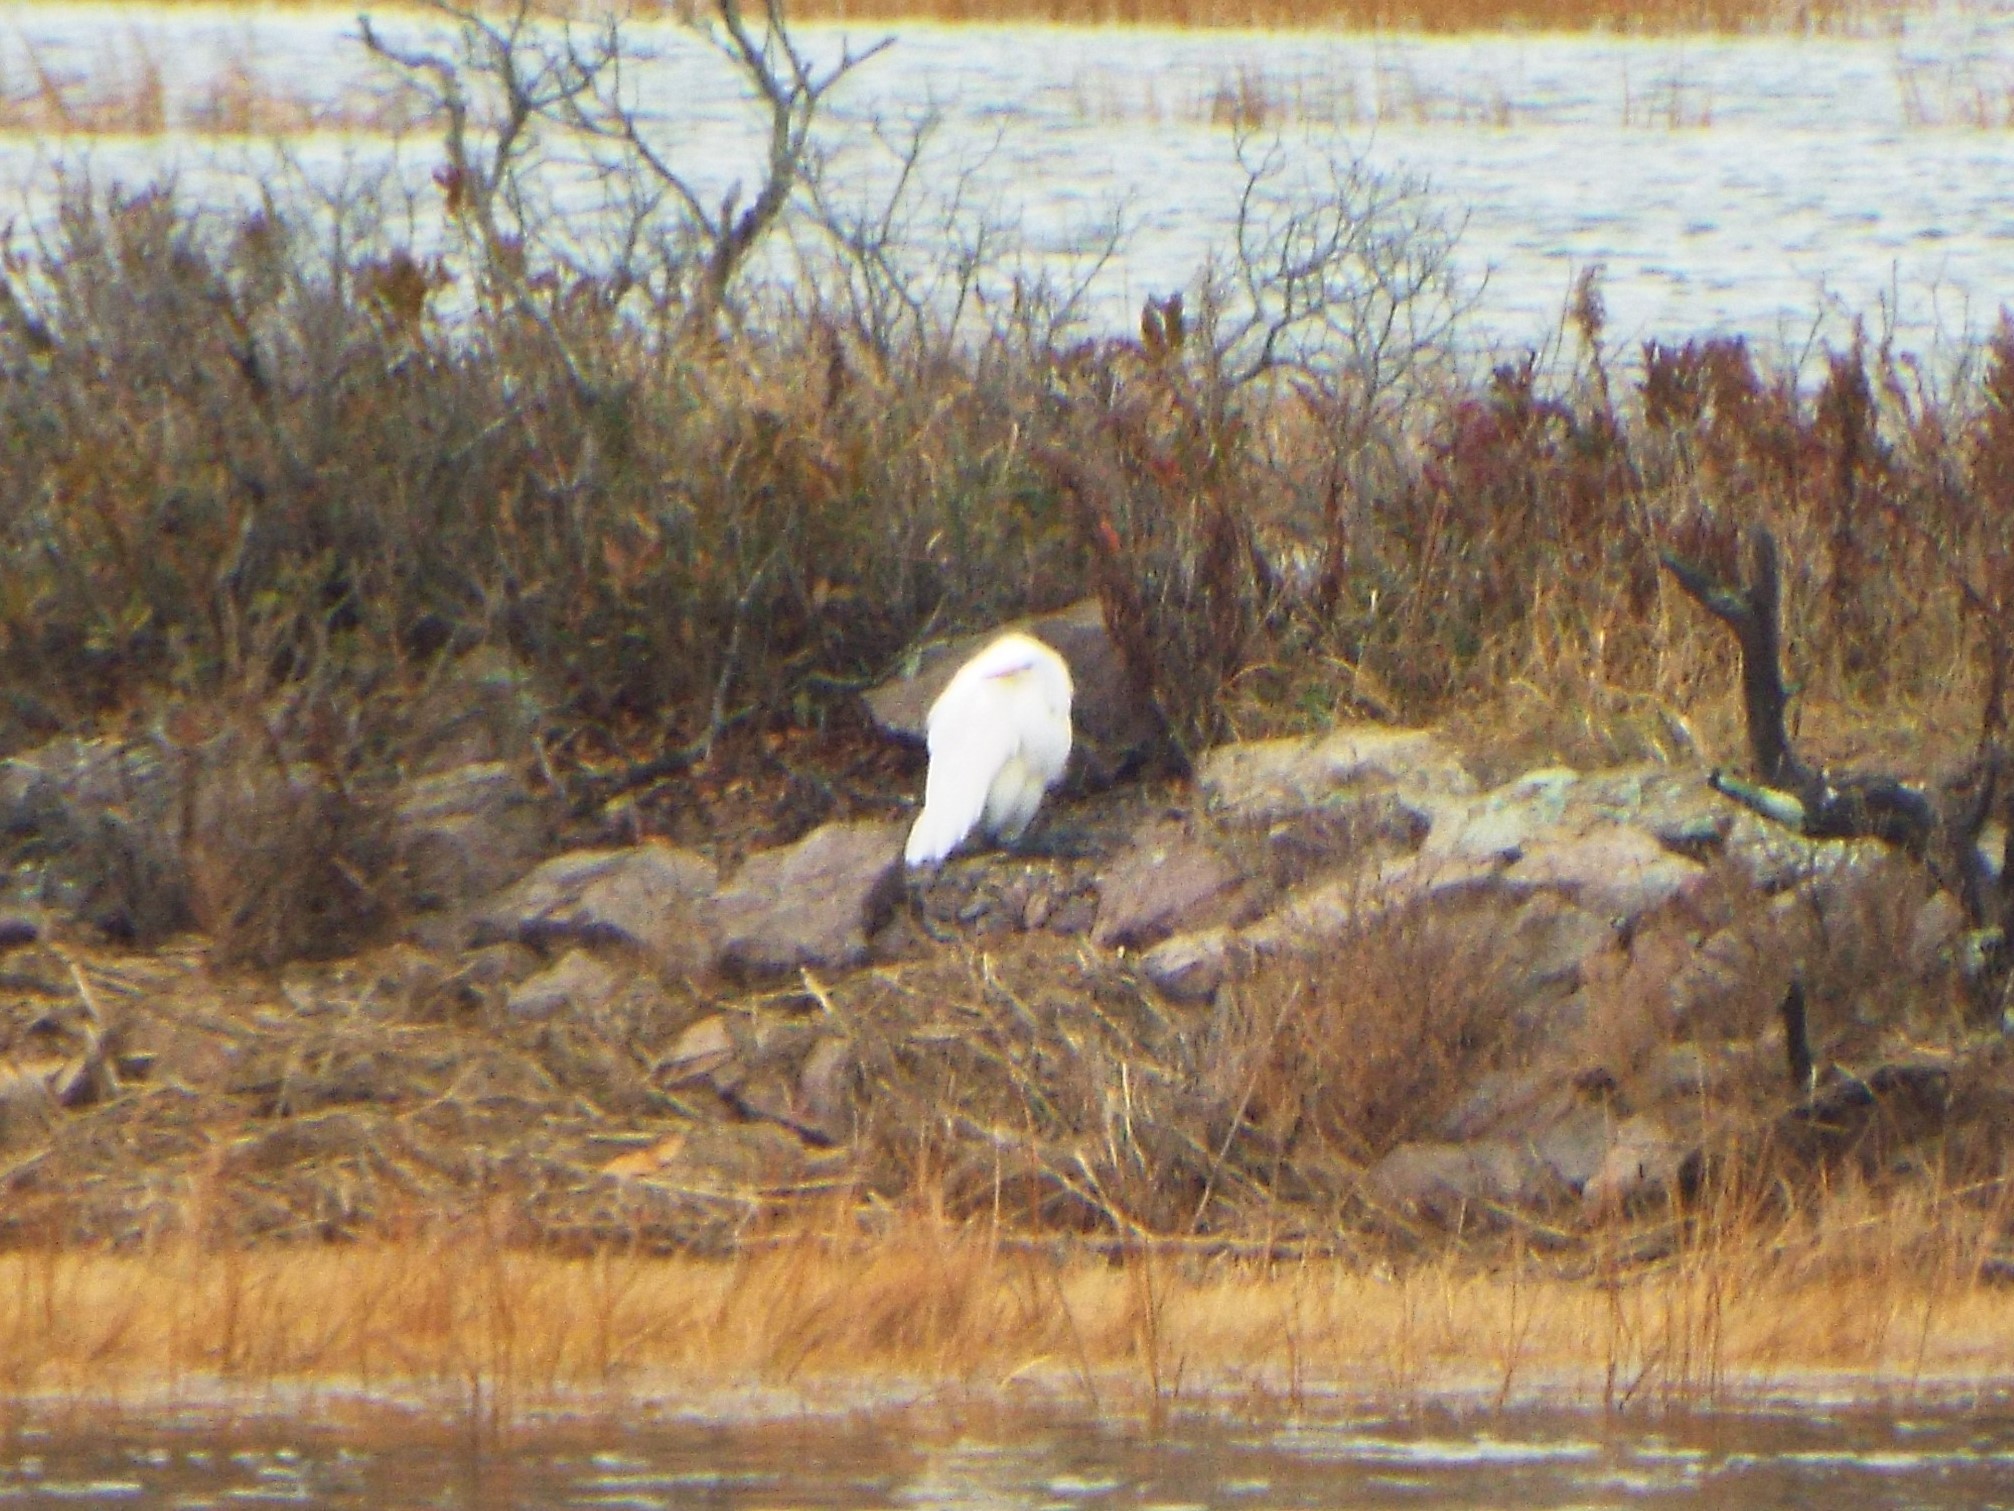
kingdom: Animalia
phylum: Chordata
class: Aves
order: Pelecaniformes
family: Ardeidae
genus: Ardea
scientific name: Ardea alba
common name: Great egret
